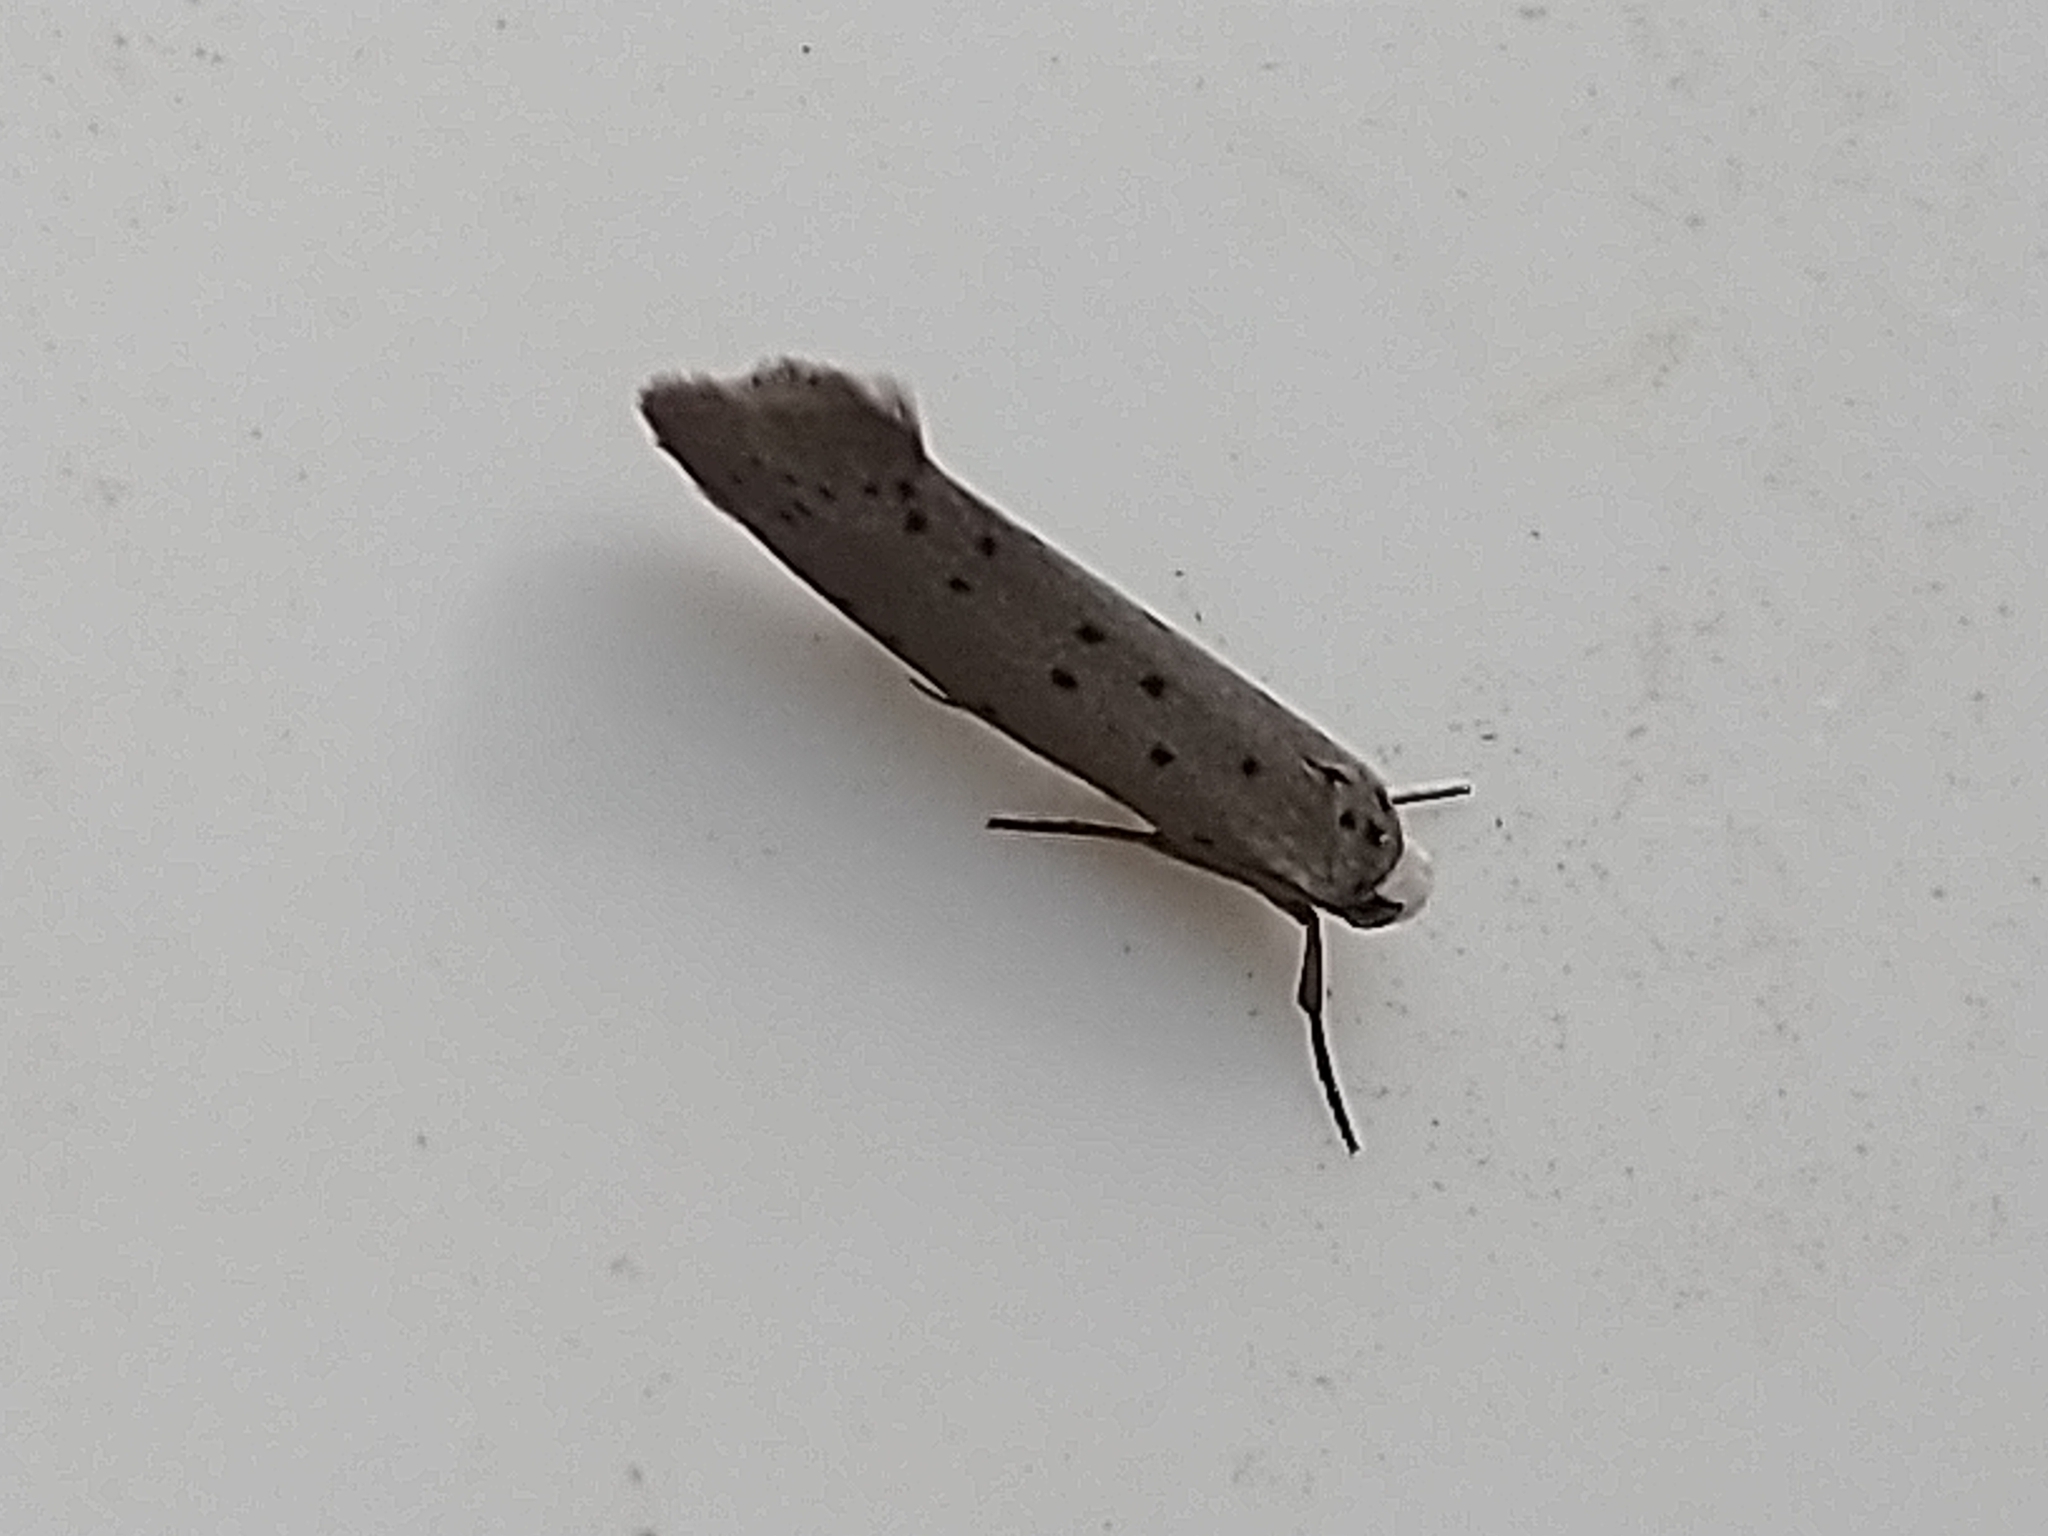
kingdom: Animalia
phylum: Arthropoda
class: Insecta
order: Lepidoptera
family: Yponomeutidae
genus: Yponomeuta
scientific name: Yponomeuta padella
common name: Orchard ermine
